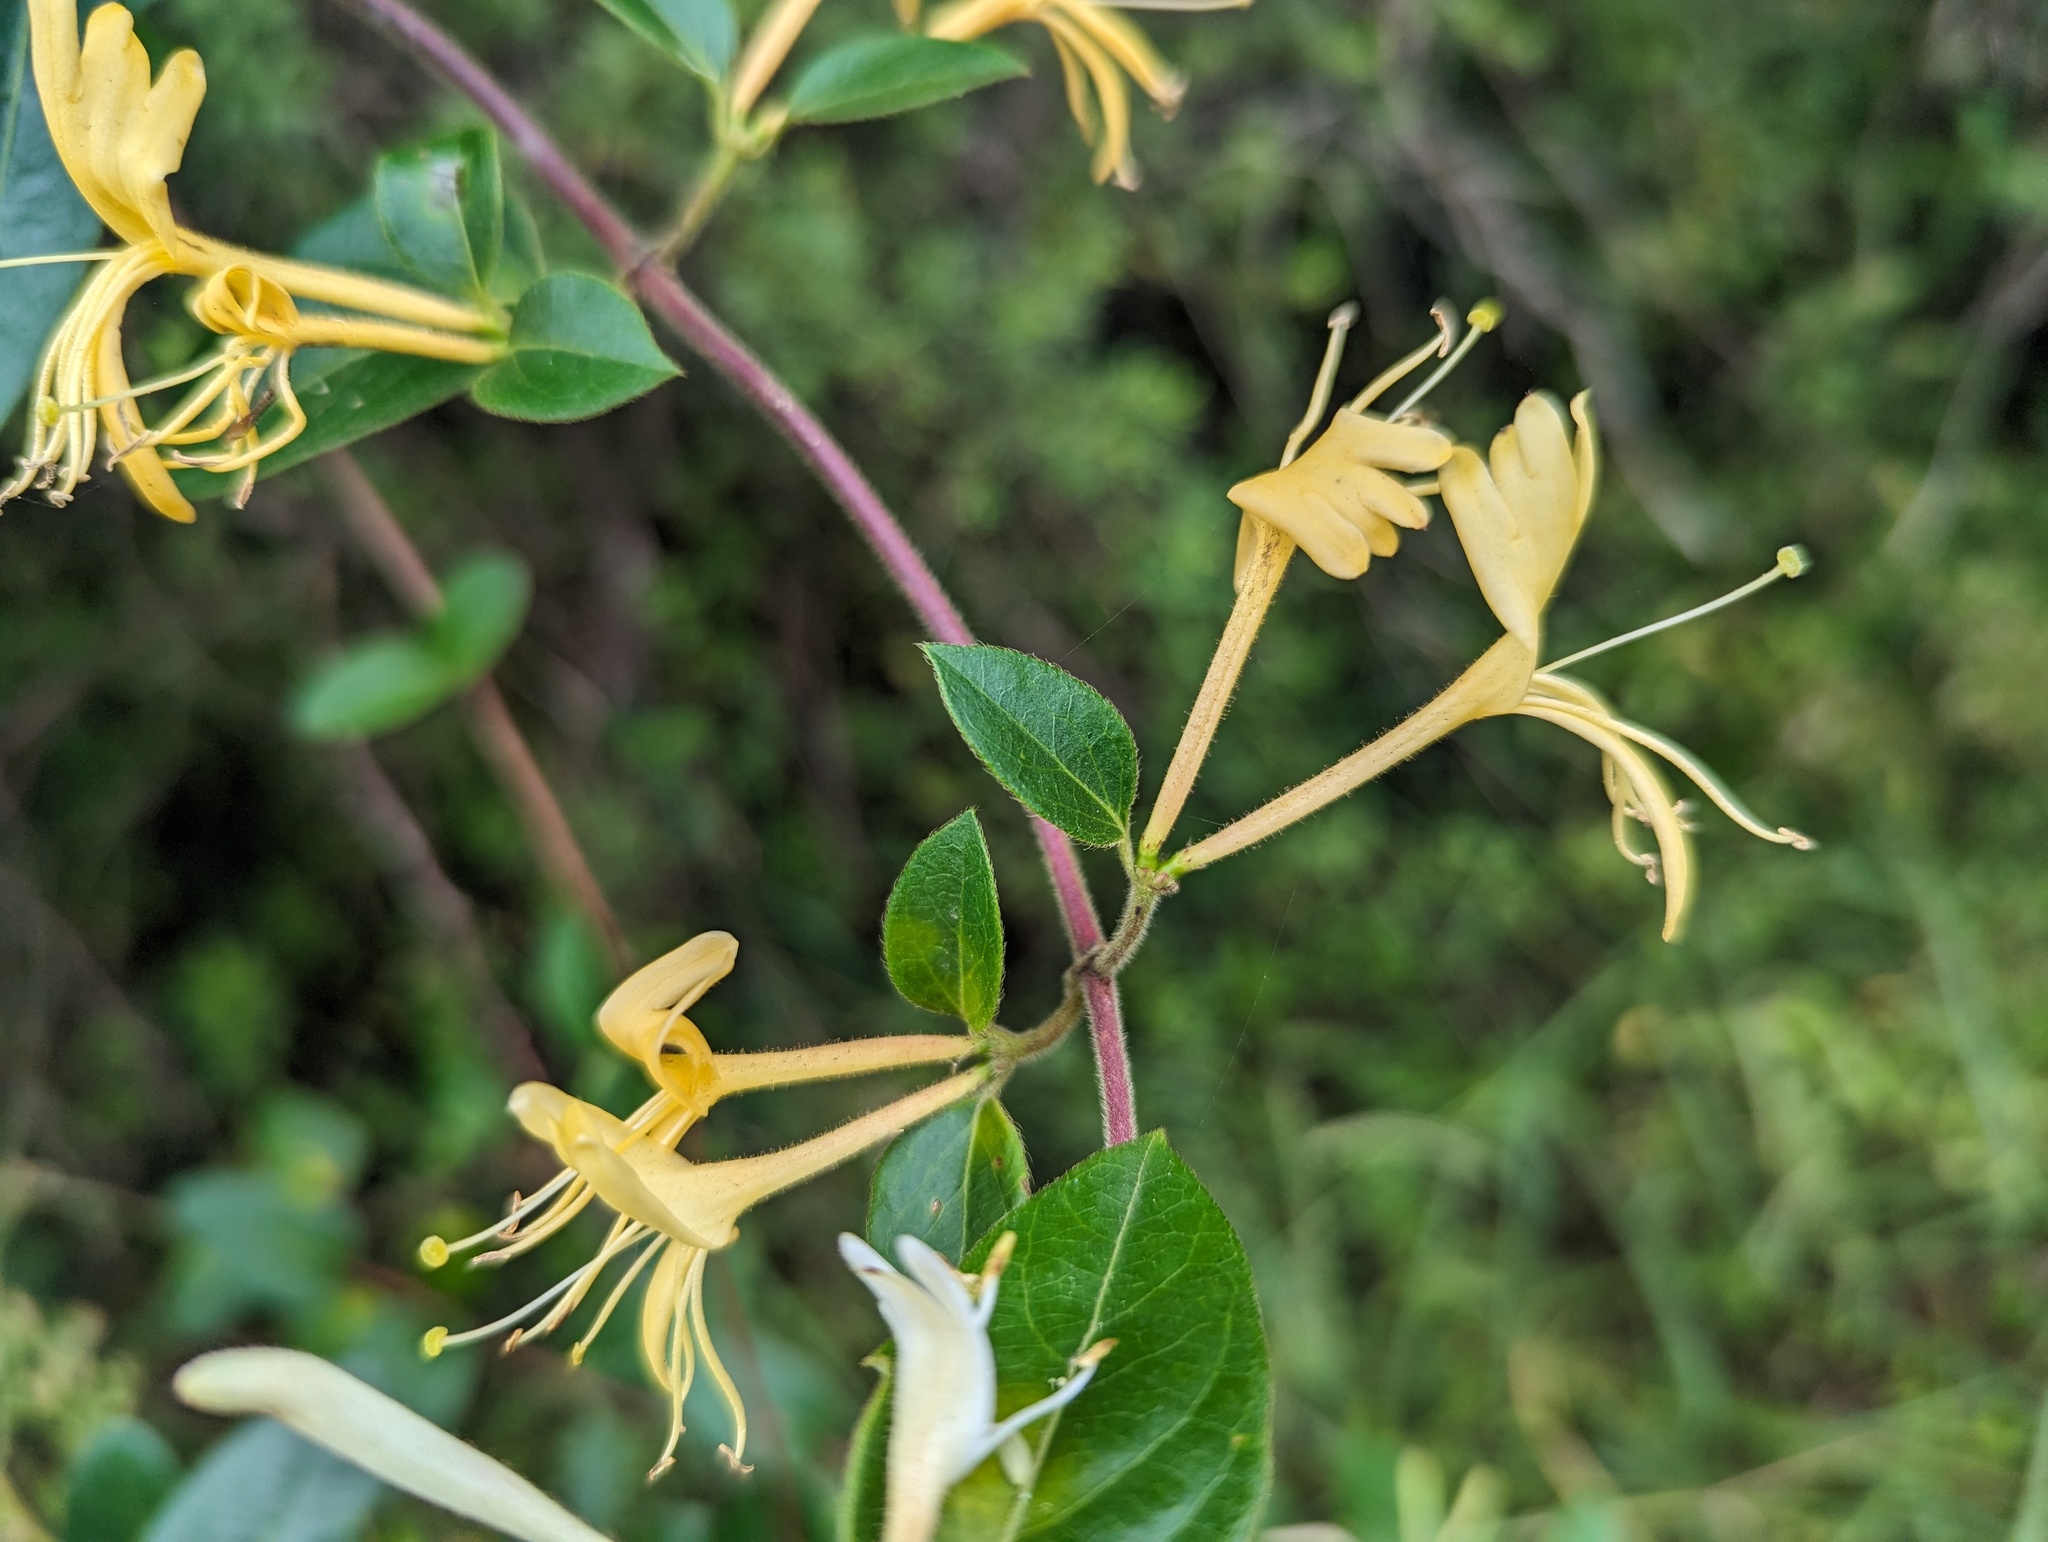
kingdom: Plantae
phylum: Tracheophyta
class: Magnoliopsida
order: Dipsacales
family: Caprifoliaceae
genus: Lonicera
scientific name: Lonicera japonica
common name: Japanese honeysuckle
